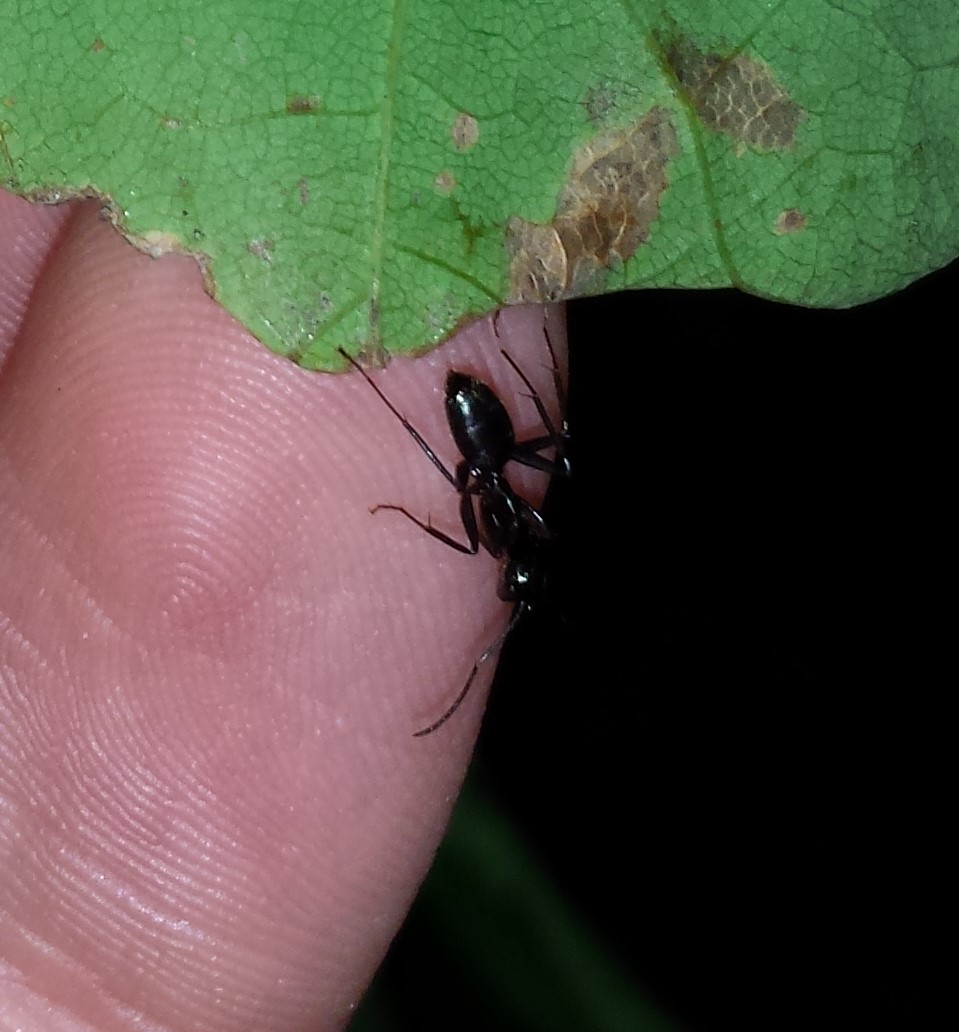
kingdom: Animalia
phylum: Arthropoda
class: Insecta
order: Hymenoptera
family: Formicidae
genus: Camponotus
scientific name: Camponotus pennsylvanicus
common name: Black carpenter ant
